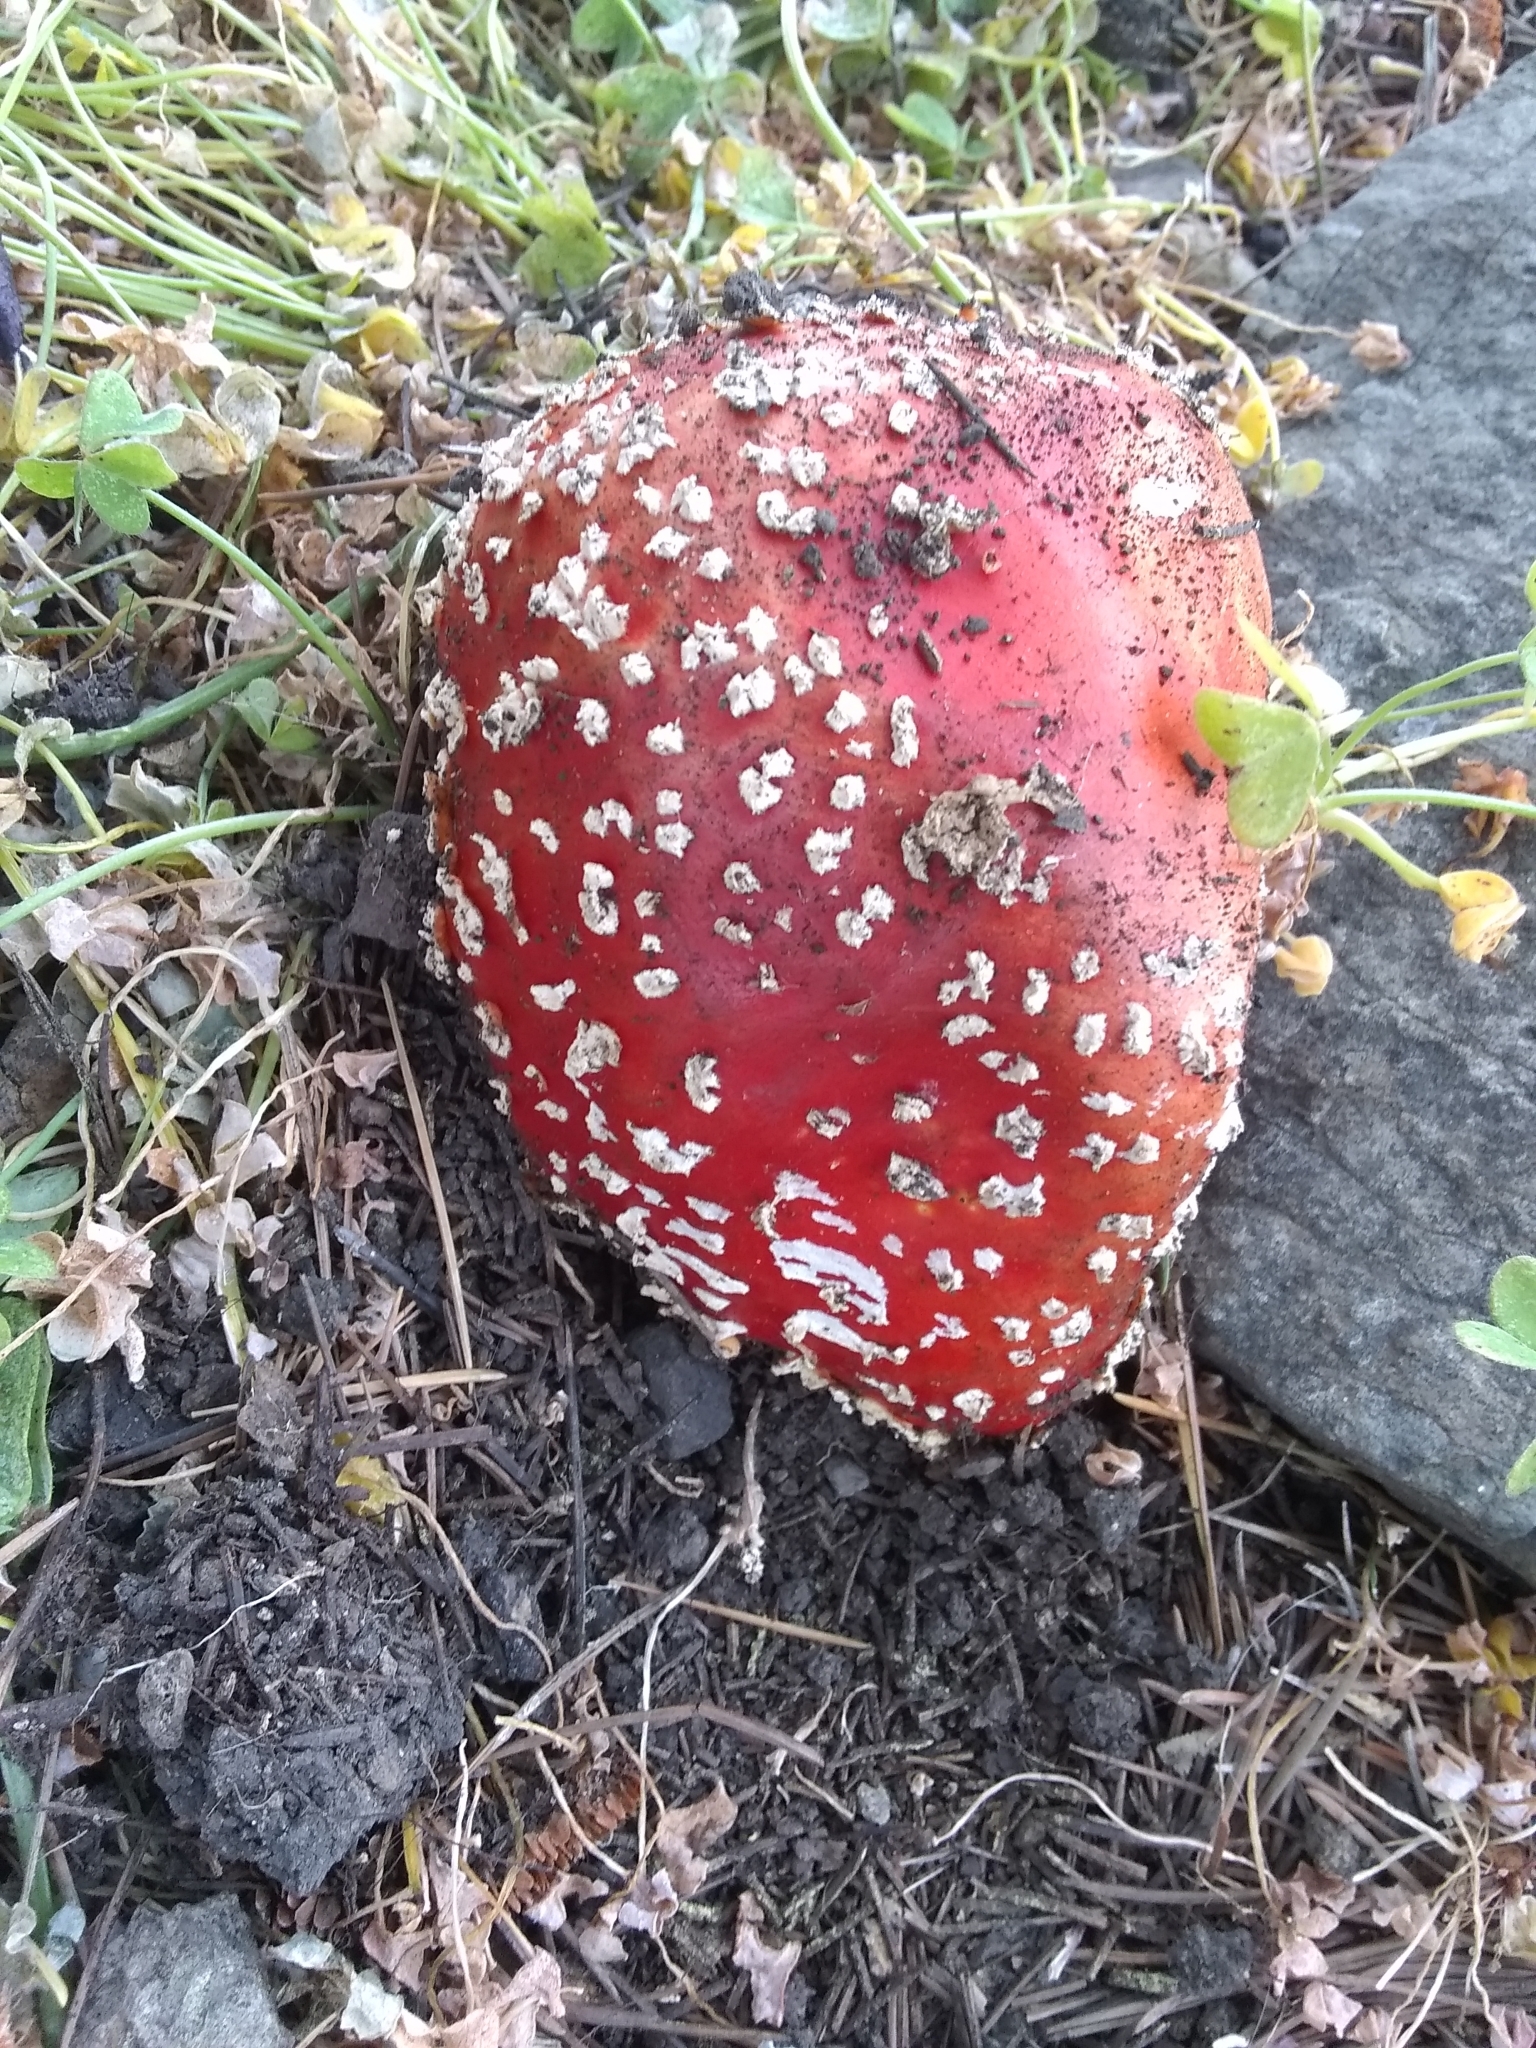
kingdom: Fungi
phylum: Basidiomycota
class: Agaricomycetes
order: Agaricales
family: Amanitaceae
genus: Amanita
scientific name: Amanita muscaria
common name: Fly agaric
